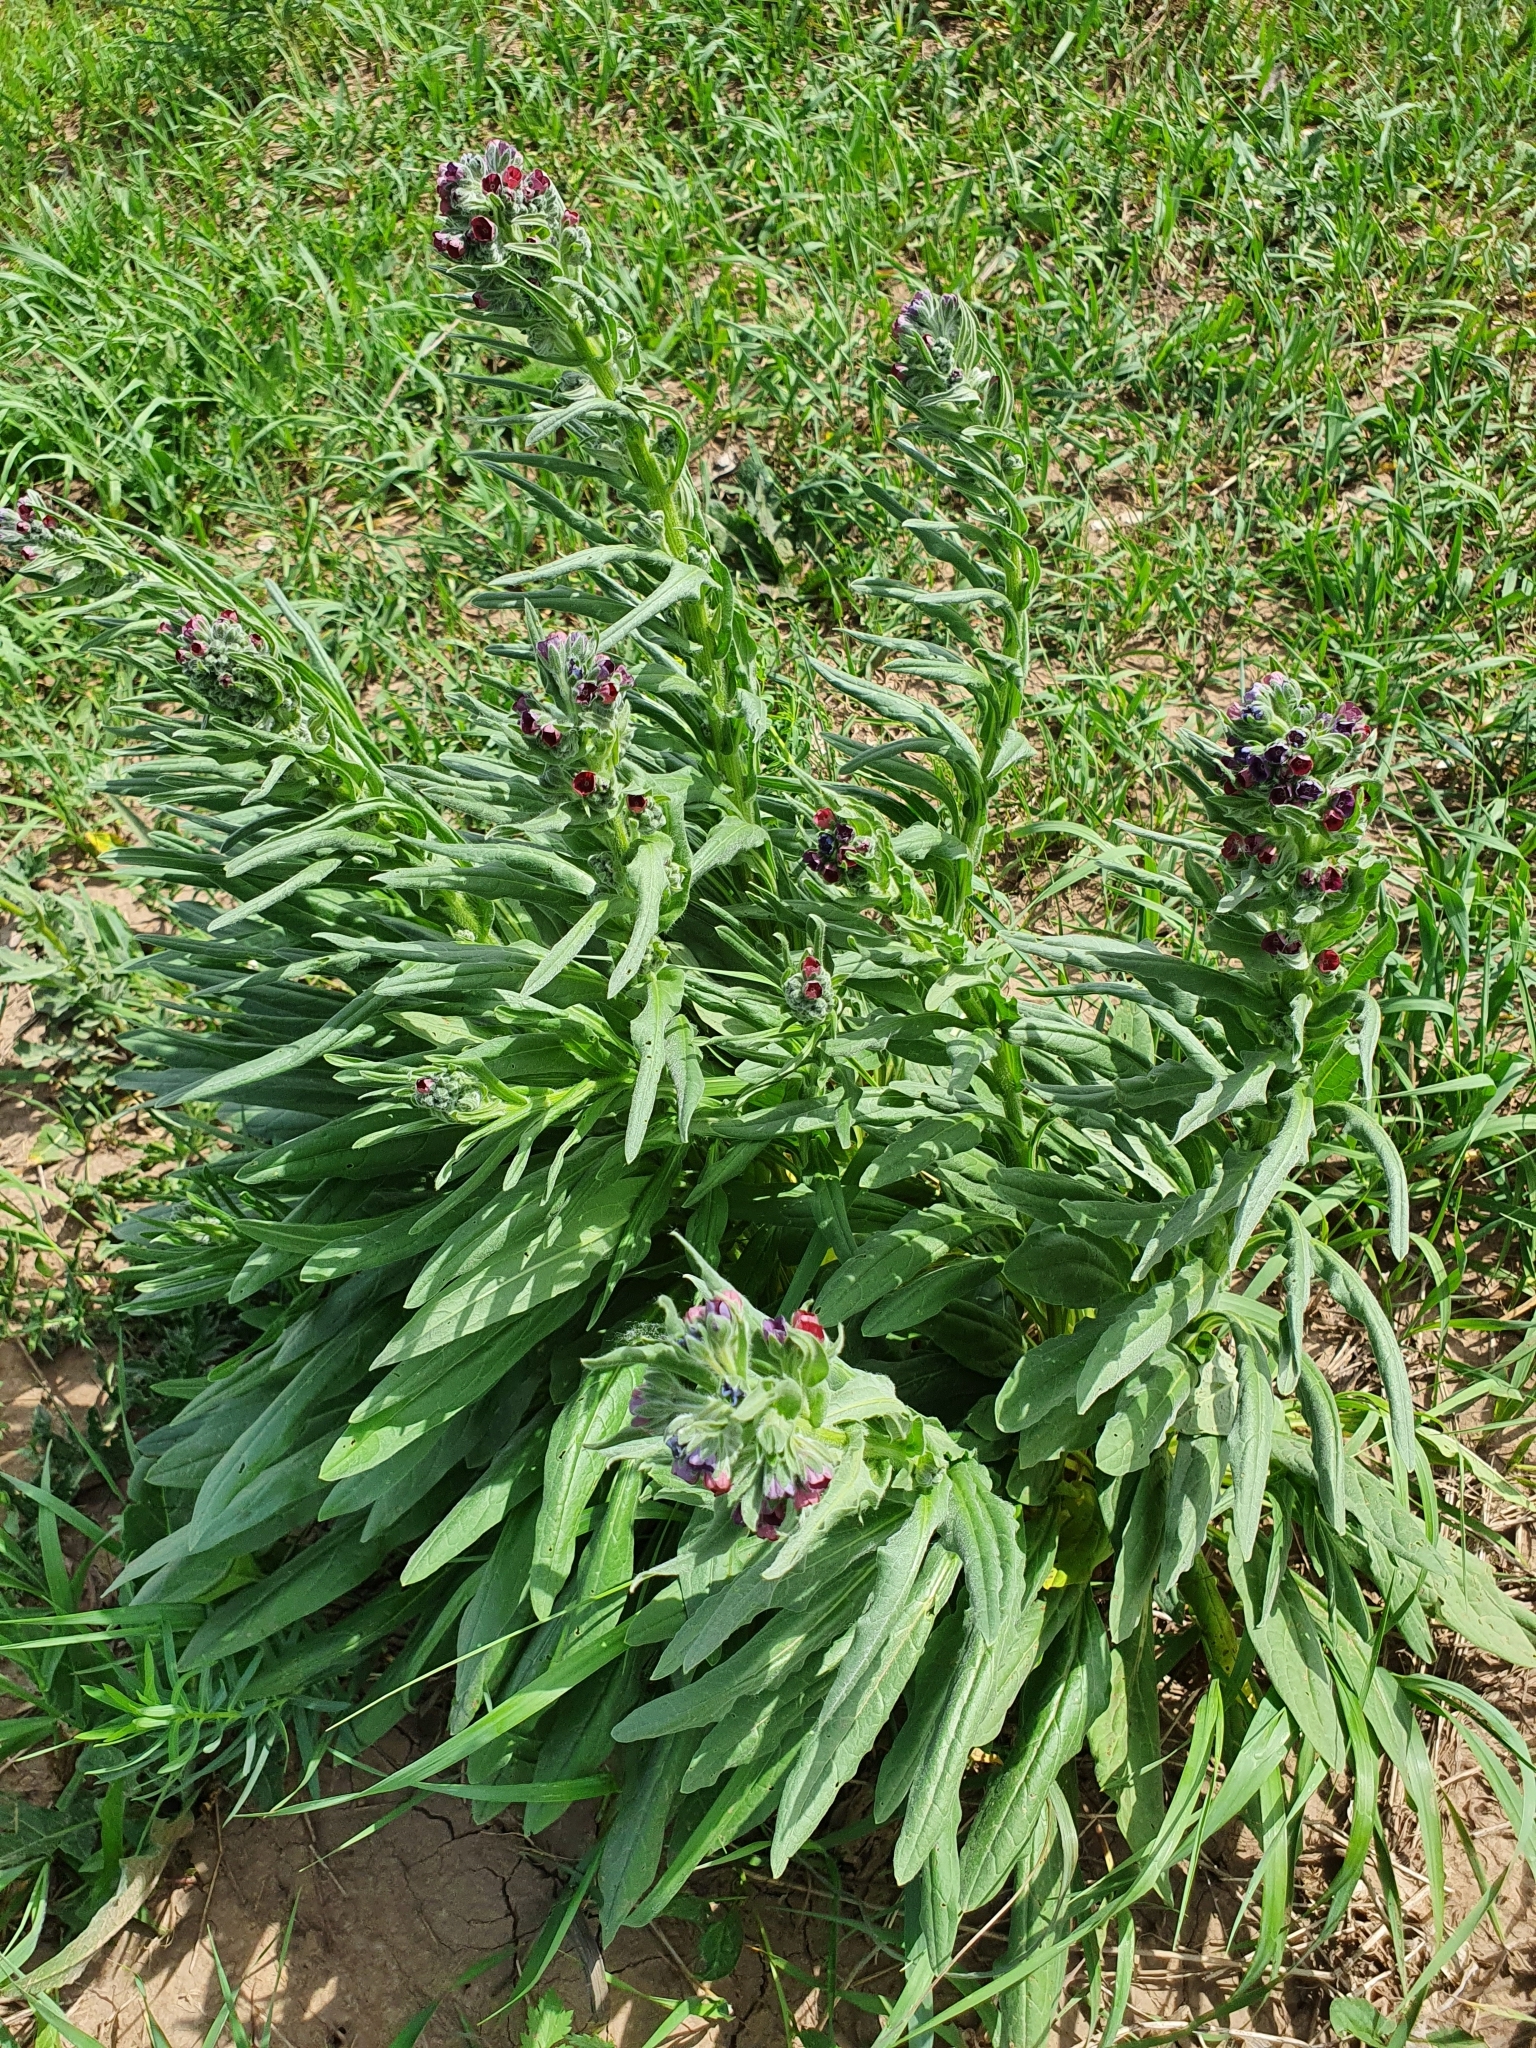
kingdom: Plantae
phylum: Tracheophyta
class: Magnoliopsida
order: Boraginales
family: Boraginaceae
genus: Cynoglossum
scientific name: Cynoglossum officinale
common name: Hound's-tongue
